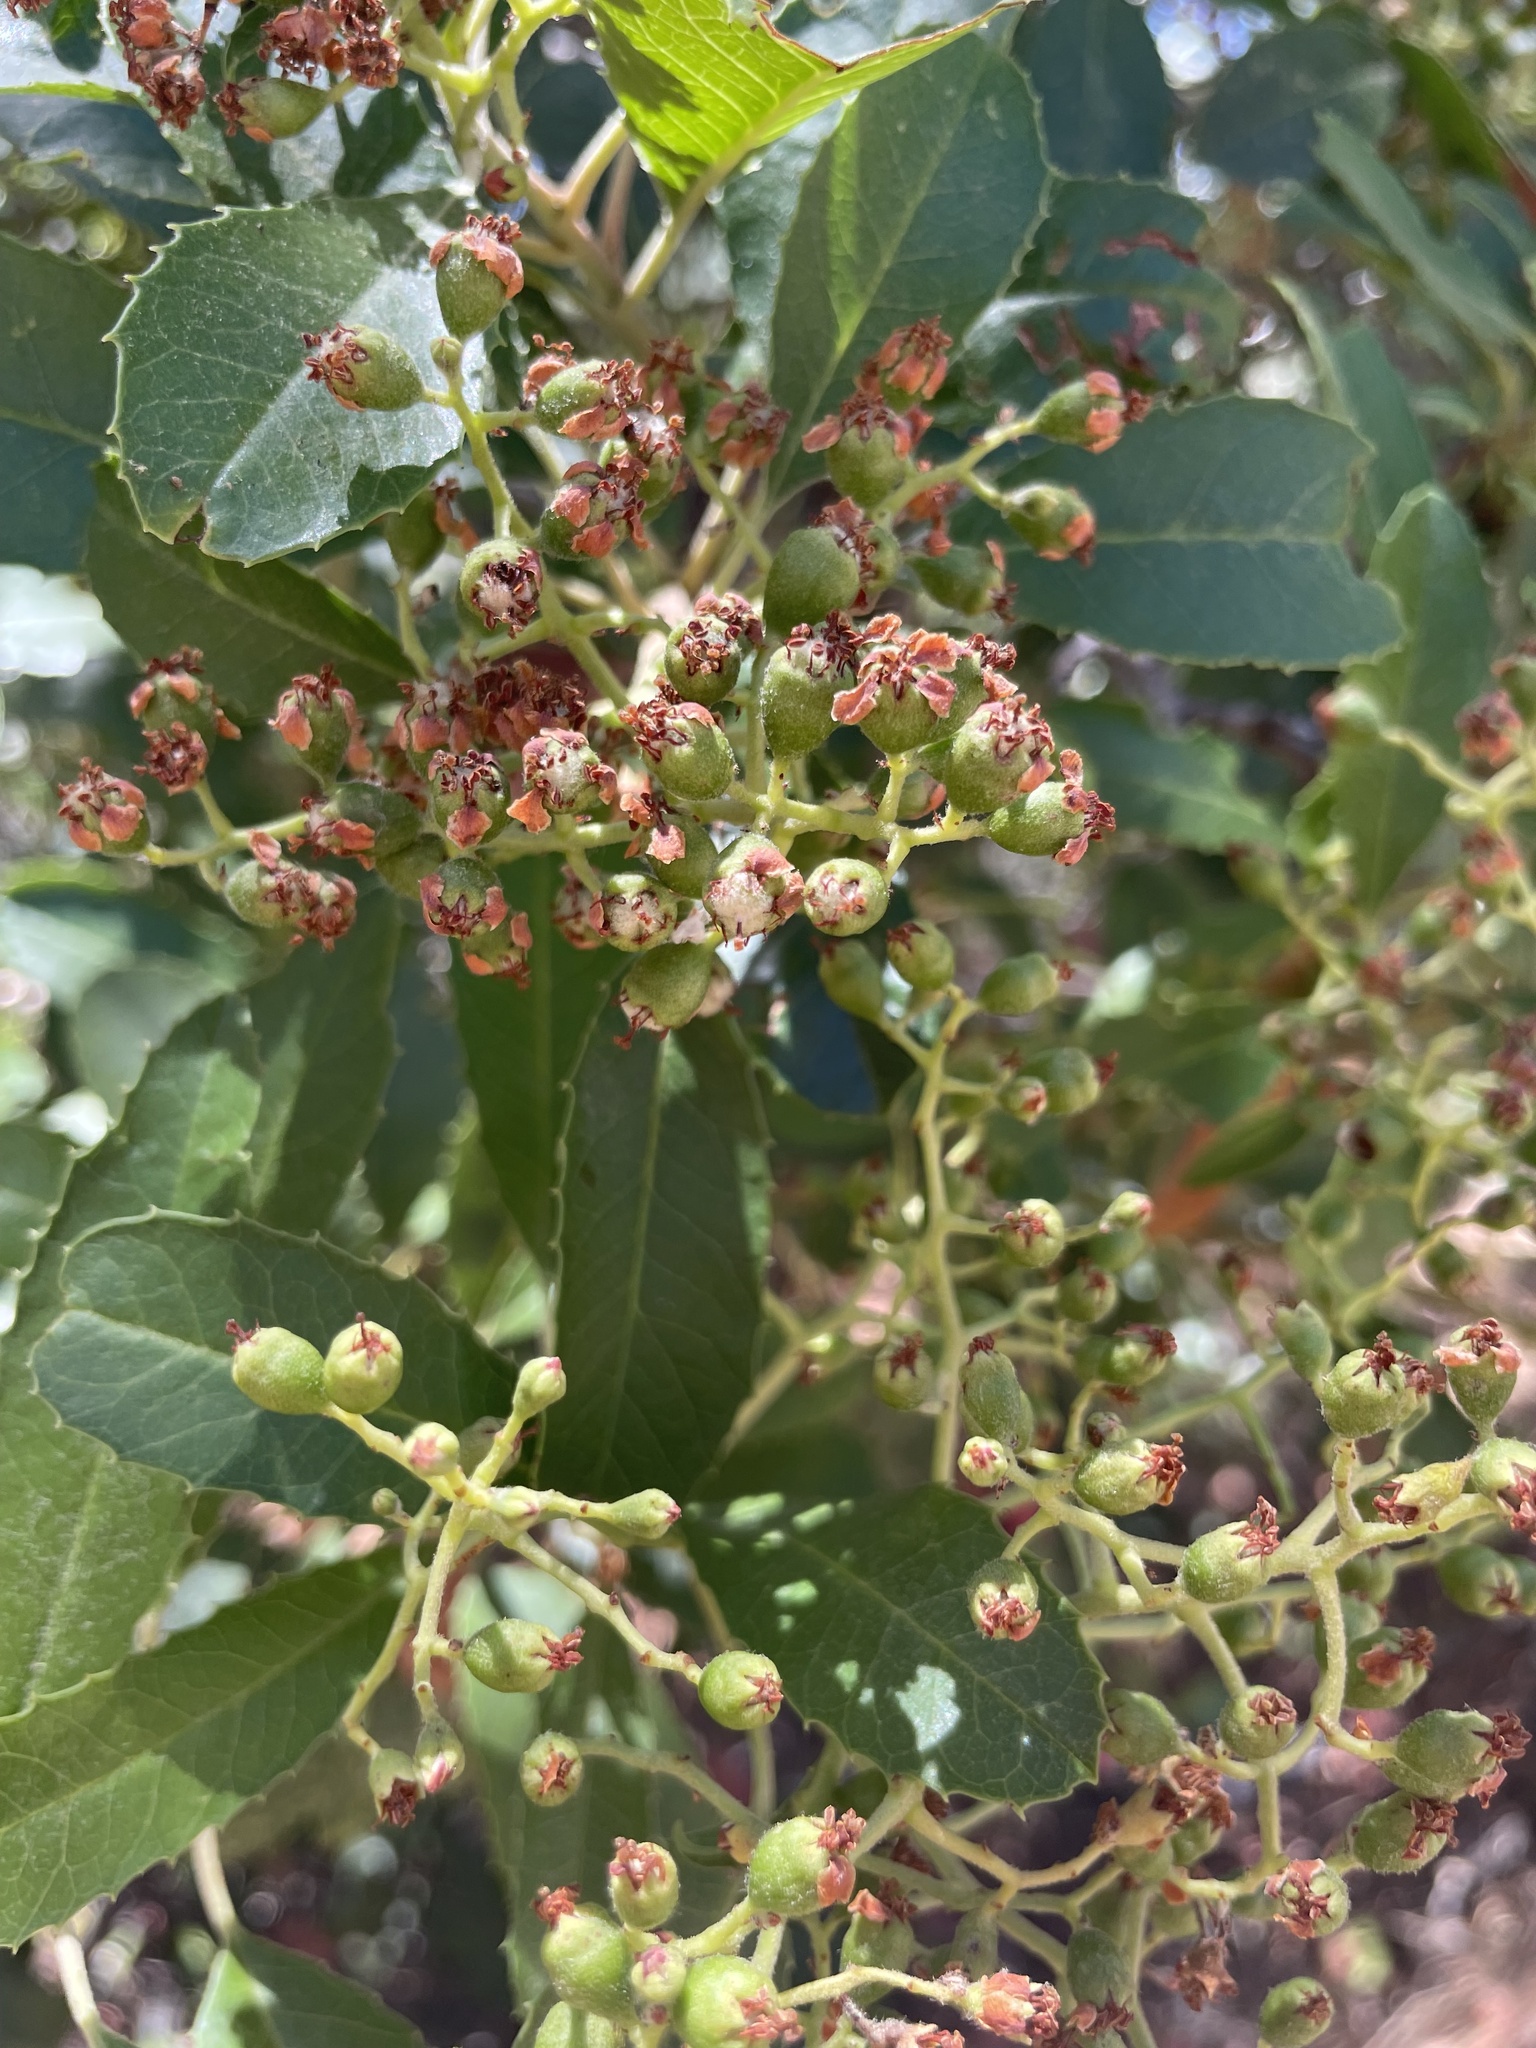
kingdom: Plantae
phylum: Tracheophyta
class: Magnoliopsida
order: Rosales
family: Rosaceae
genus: Heteromeles
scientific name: Heteromeles arbutifolia
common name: California-holly
